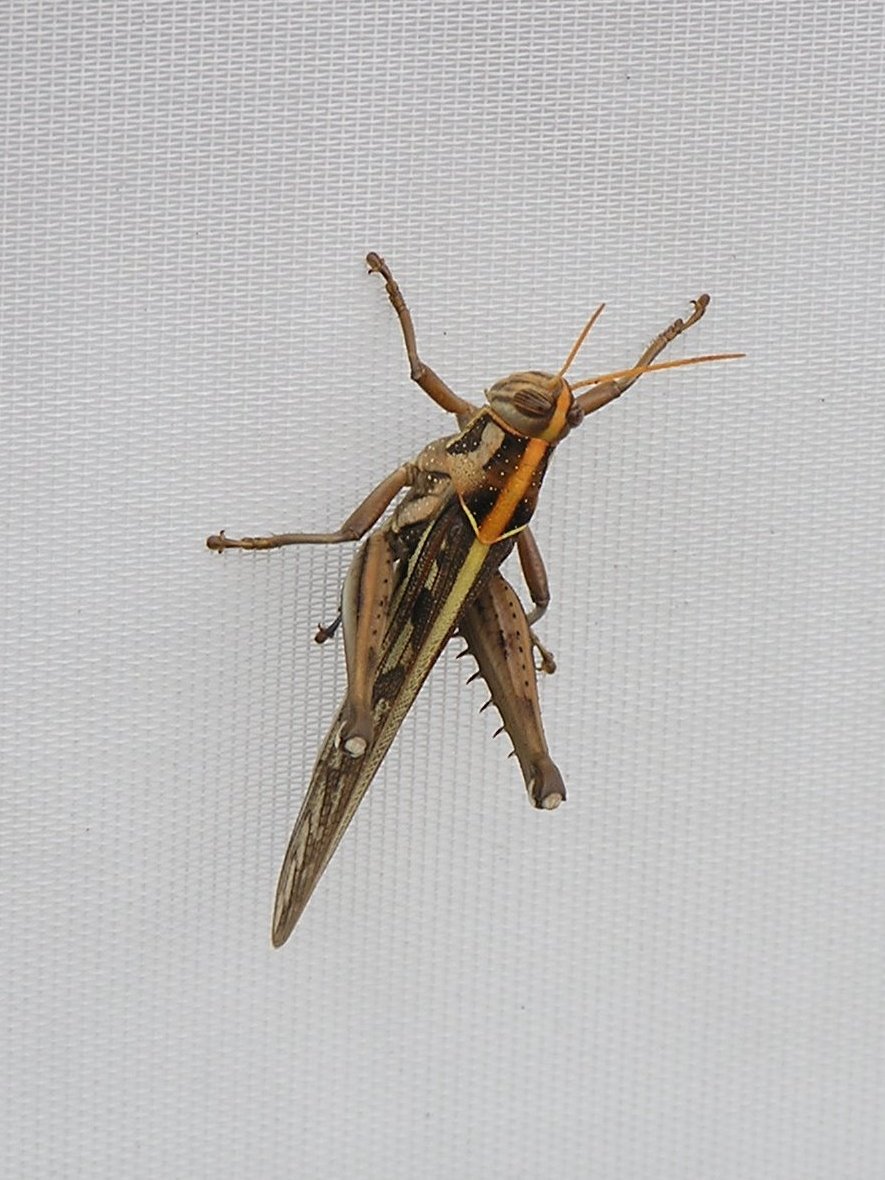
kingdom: Animalia
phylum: Arthropoda
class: Insecta
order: Orthoptera
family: Acrididae
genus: Cyrtacanthacris
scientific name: Cyrtacanthacris tatarica
